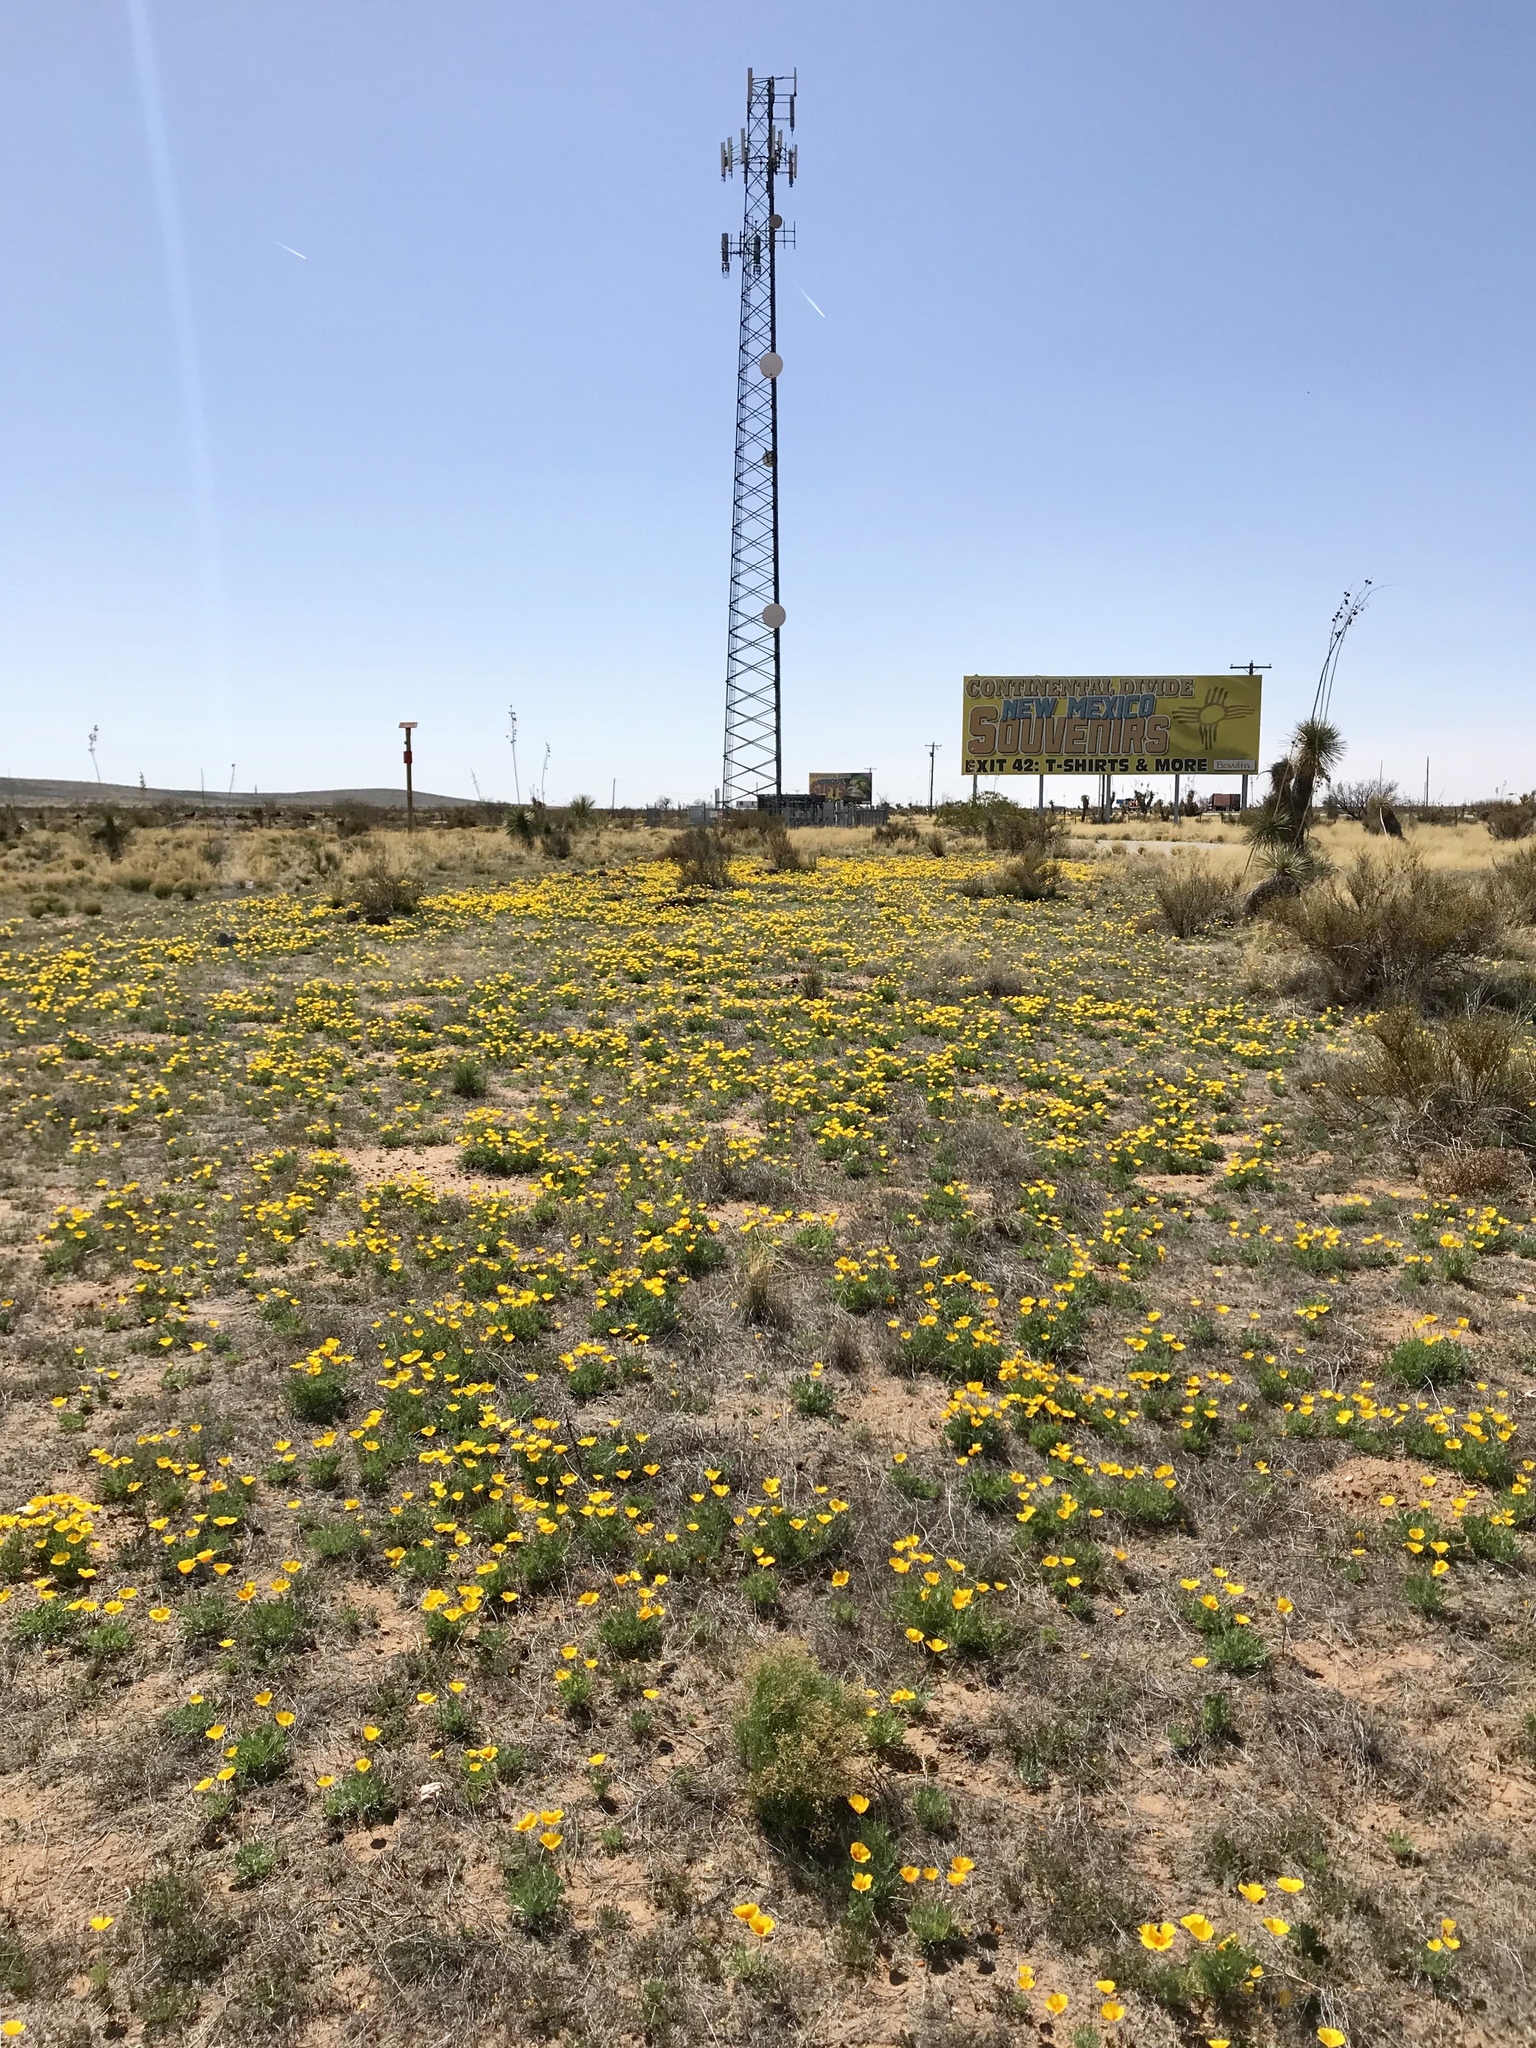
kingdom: Plantae
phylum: Tracheophyta
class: Magnoliopsida
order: Ranunculales
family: Papaveraceae
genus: Eschscholzia
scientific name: Eschscholzia californica
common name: California poppy
